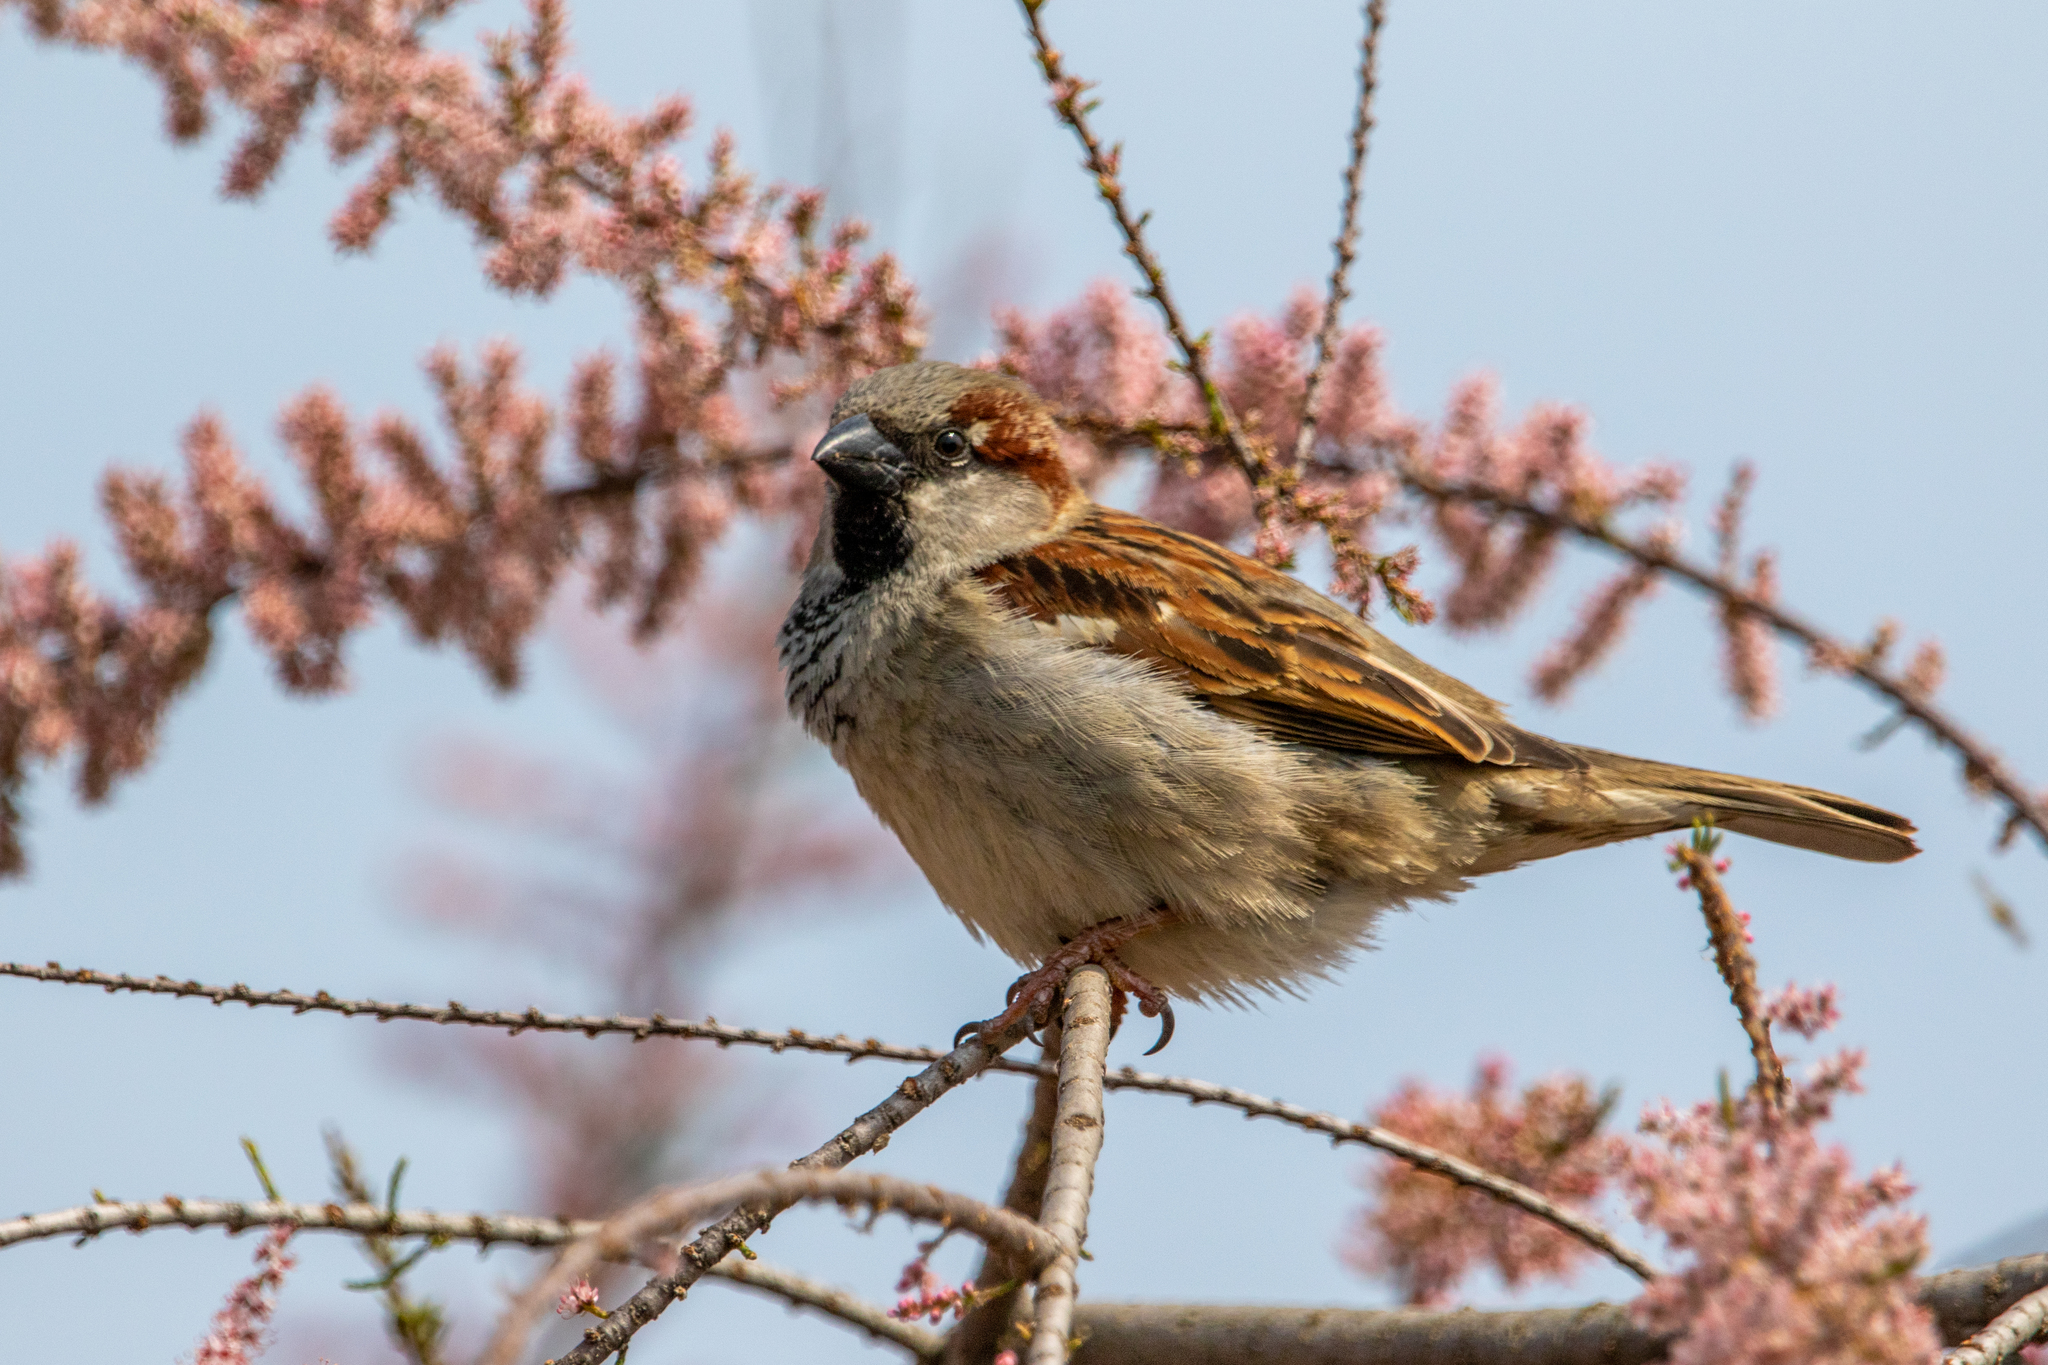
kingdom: Animalia
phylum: Chordata
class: Aves
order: Passeriformes
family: Passeridae
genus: Passer
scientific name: Passer domesticus
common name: House sparrow
